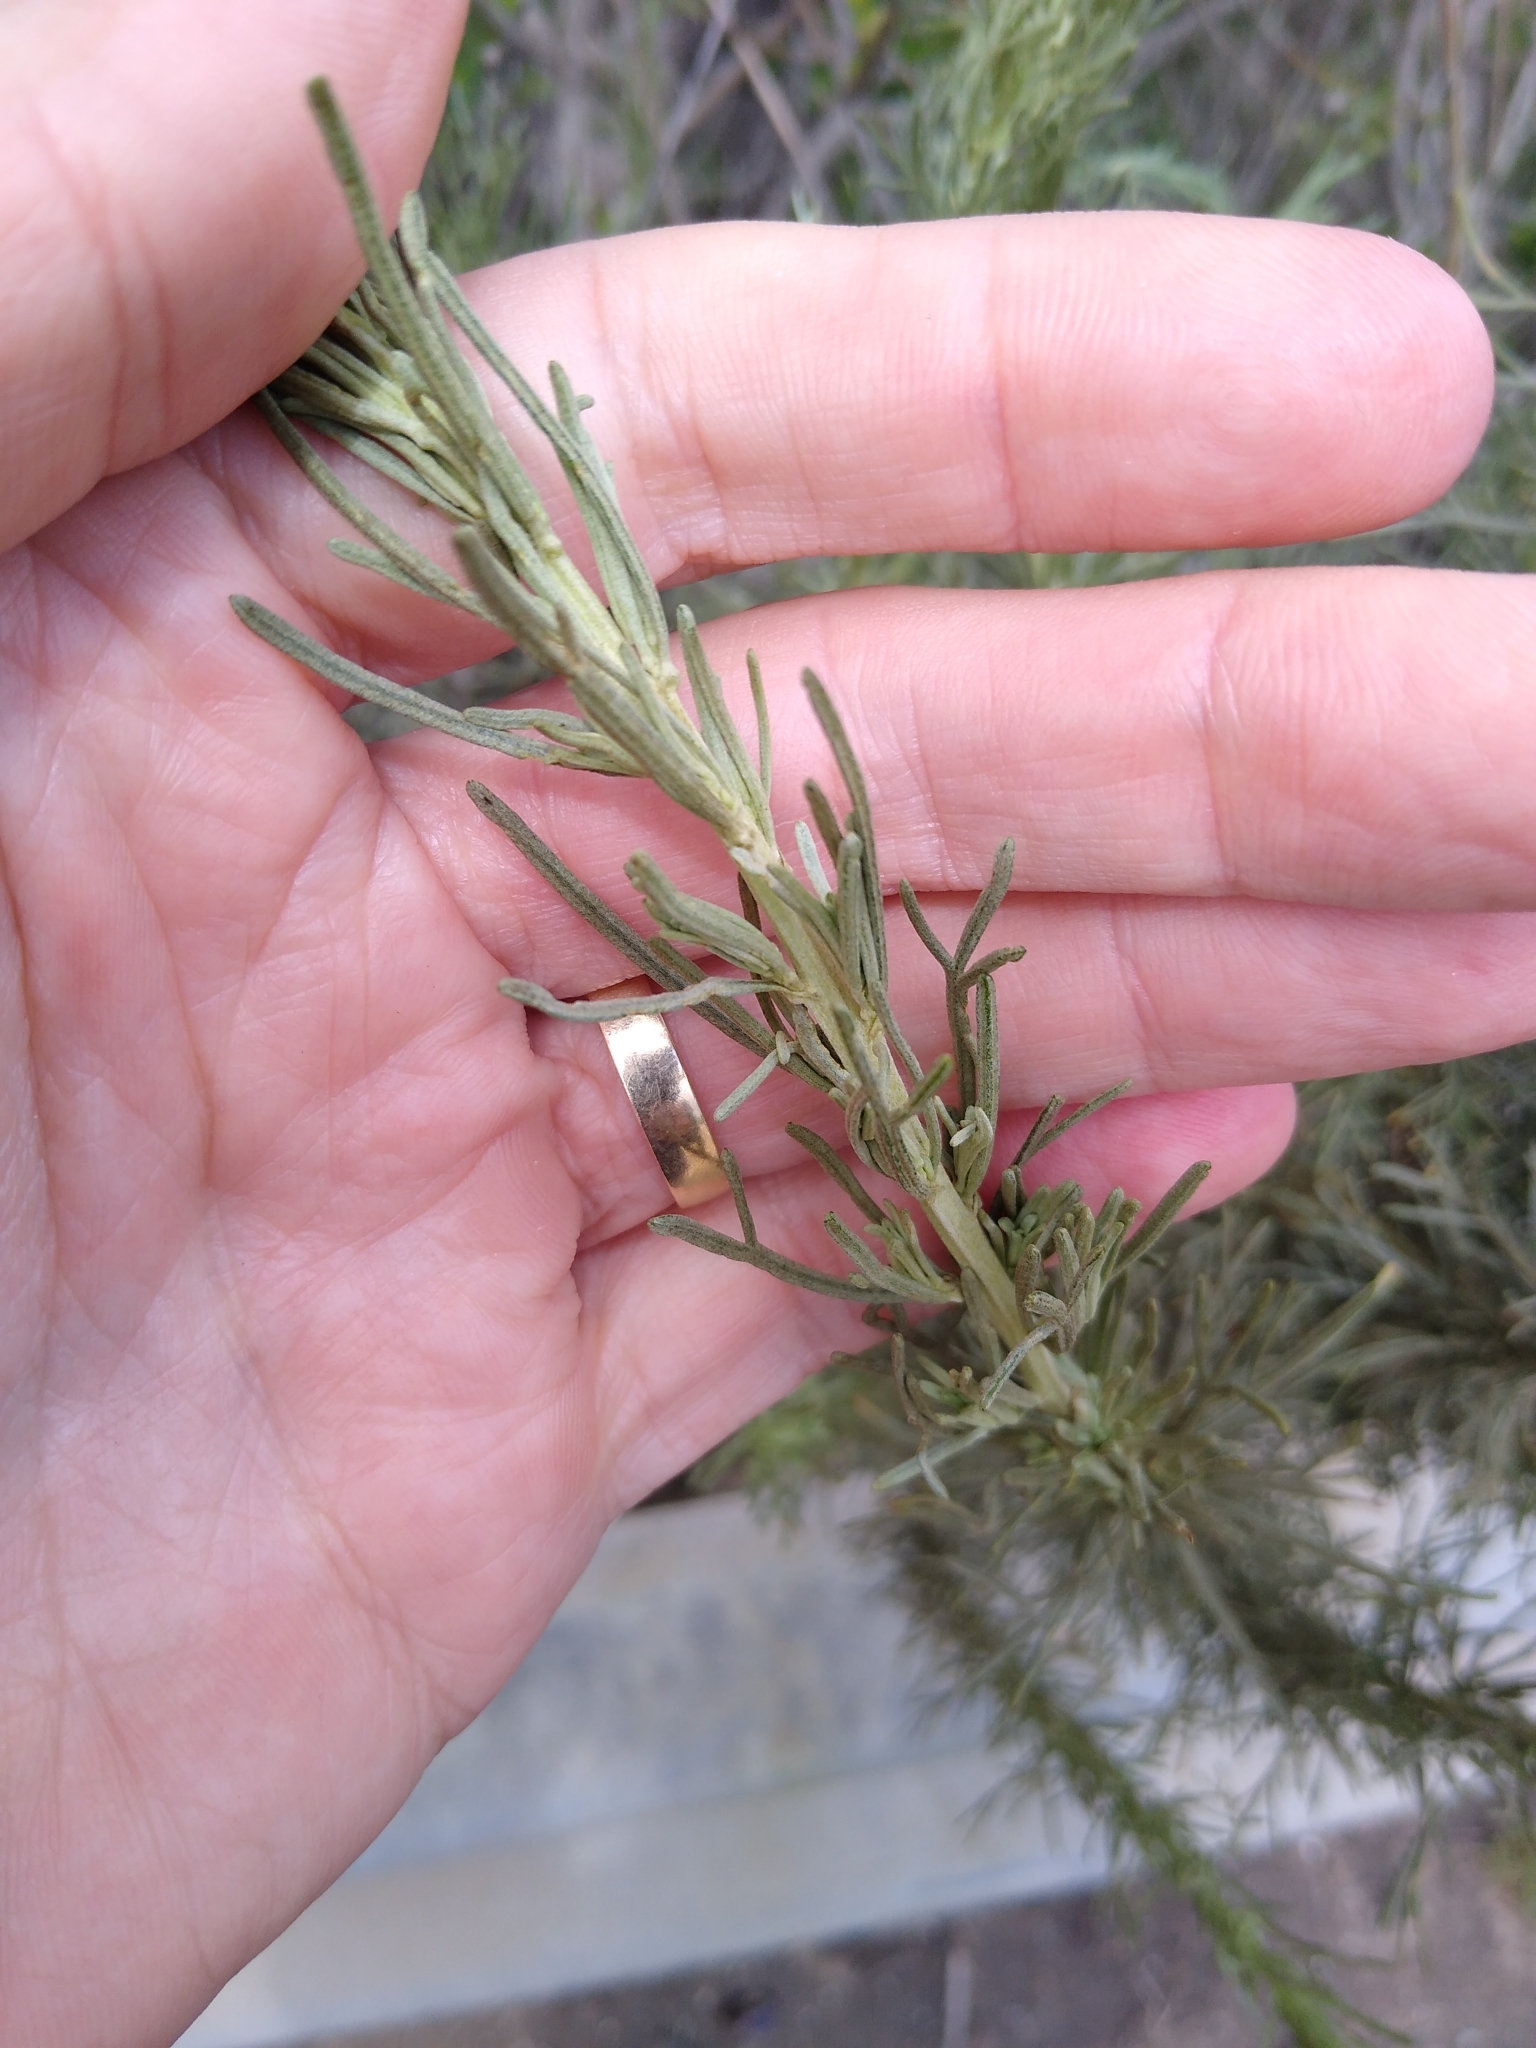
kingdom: Plantae
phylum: Tracheophyta
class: Magnoliopsida
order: Asterales
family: Asteraceae
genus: Artemisia
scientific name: Artemisia californica
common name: California sagebrush
